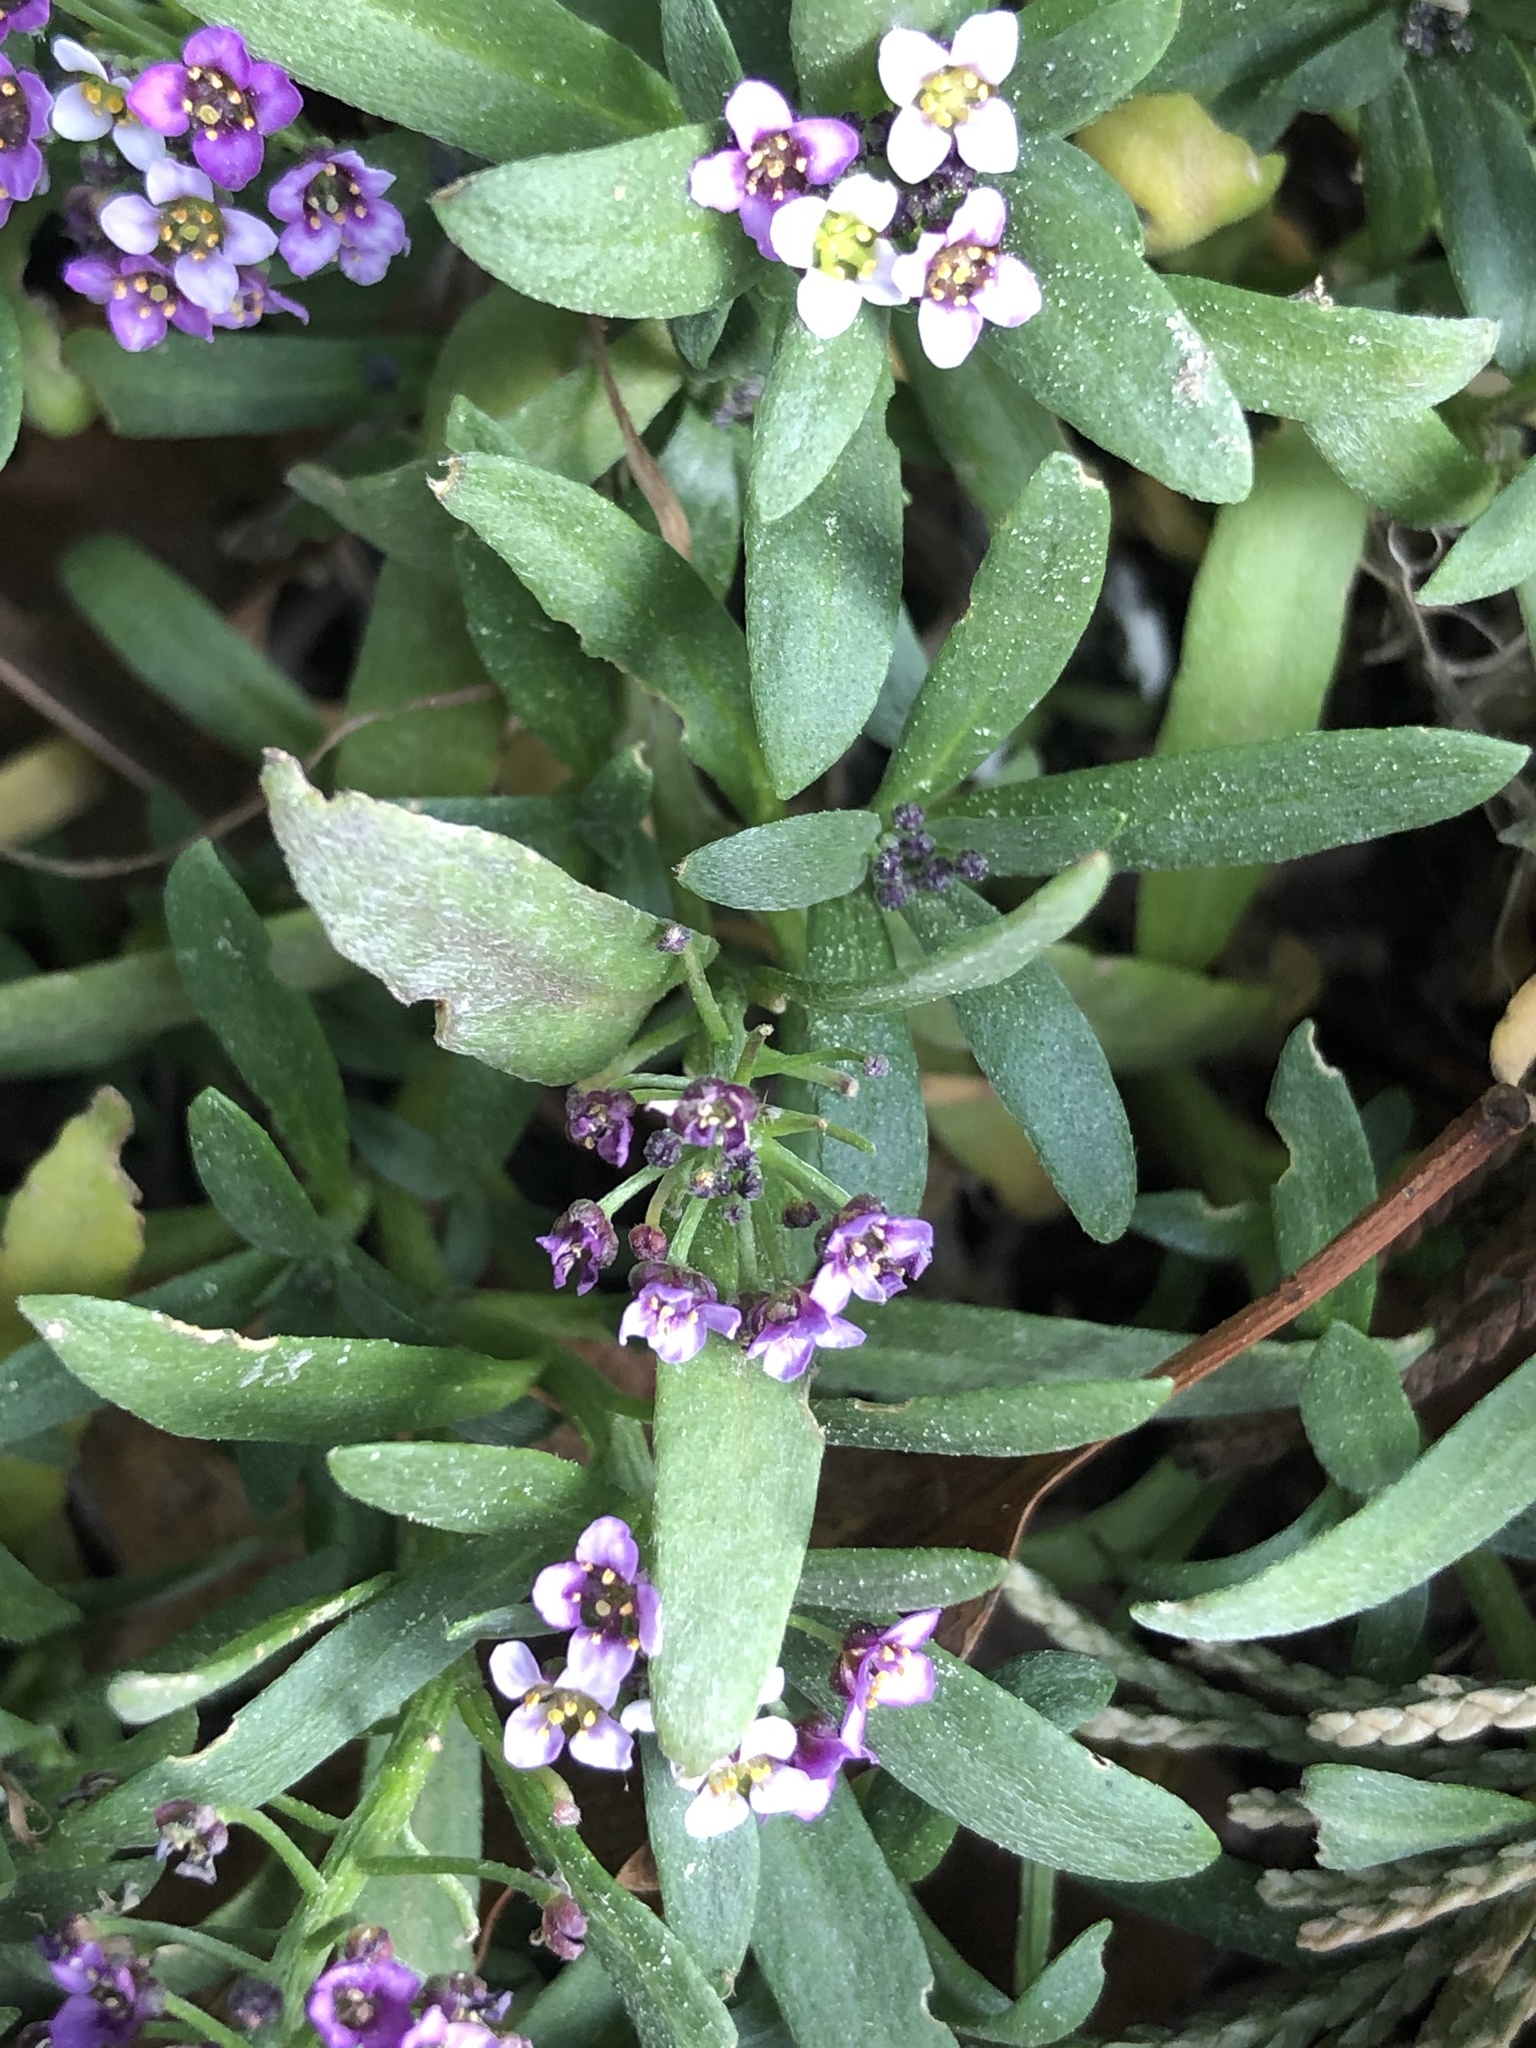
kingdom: Plantae
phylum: Tracheophyta
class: Magnoliopsida
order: Brassicales
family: Brassicaceae
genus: Lobularia
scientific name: Lobularia maritima
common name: Sweet alison
